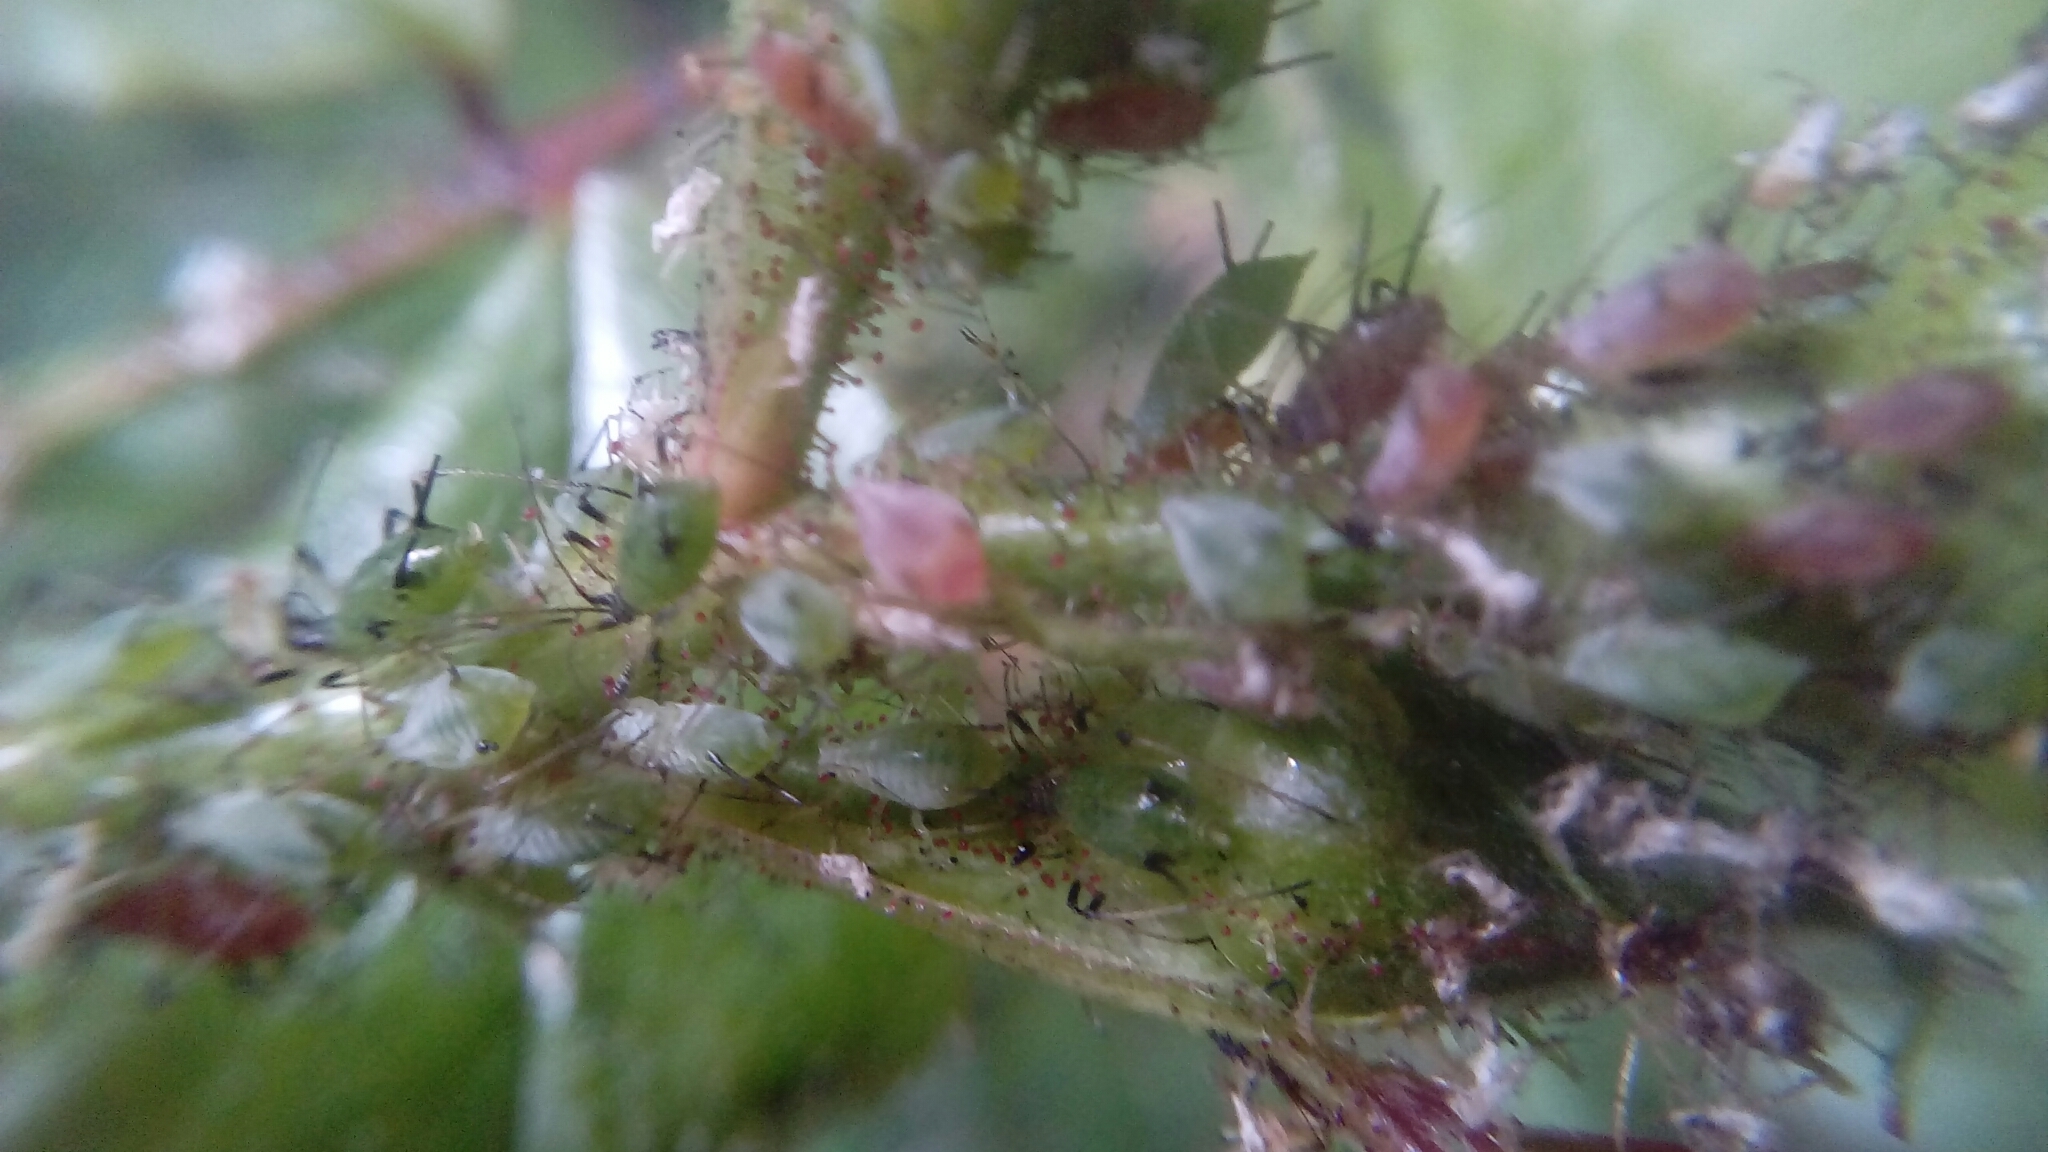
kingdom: Animalia
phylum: Arthropoda
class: Insecta
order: Hemiptera
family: Aphididae
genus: Macrosiphum
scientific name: Macrosiphum rosae
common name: Rose aphid
